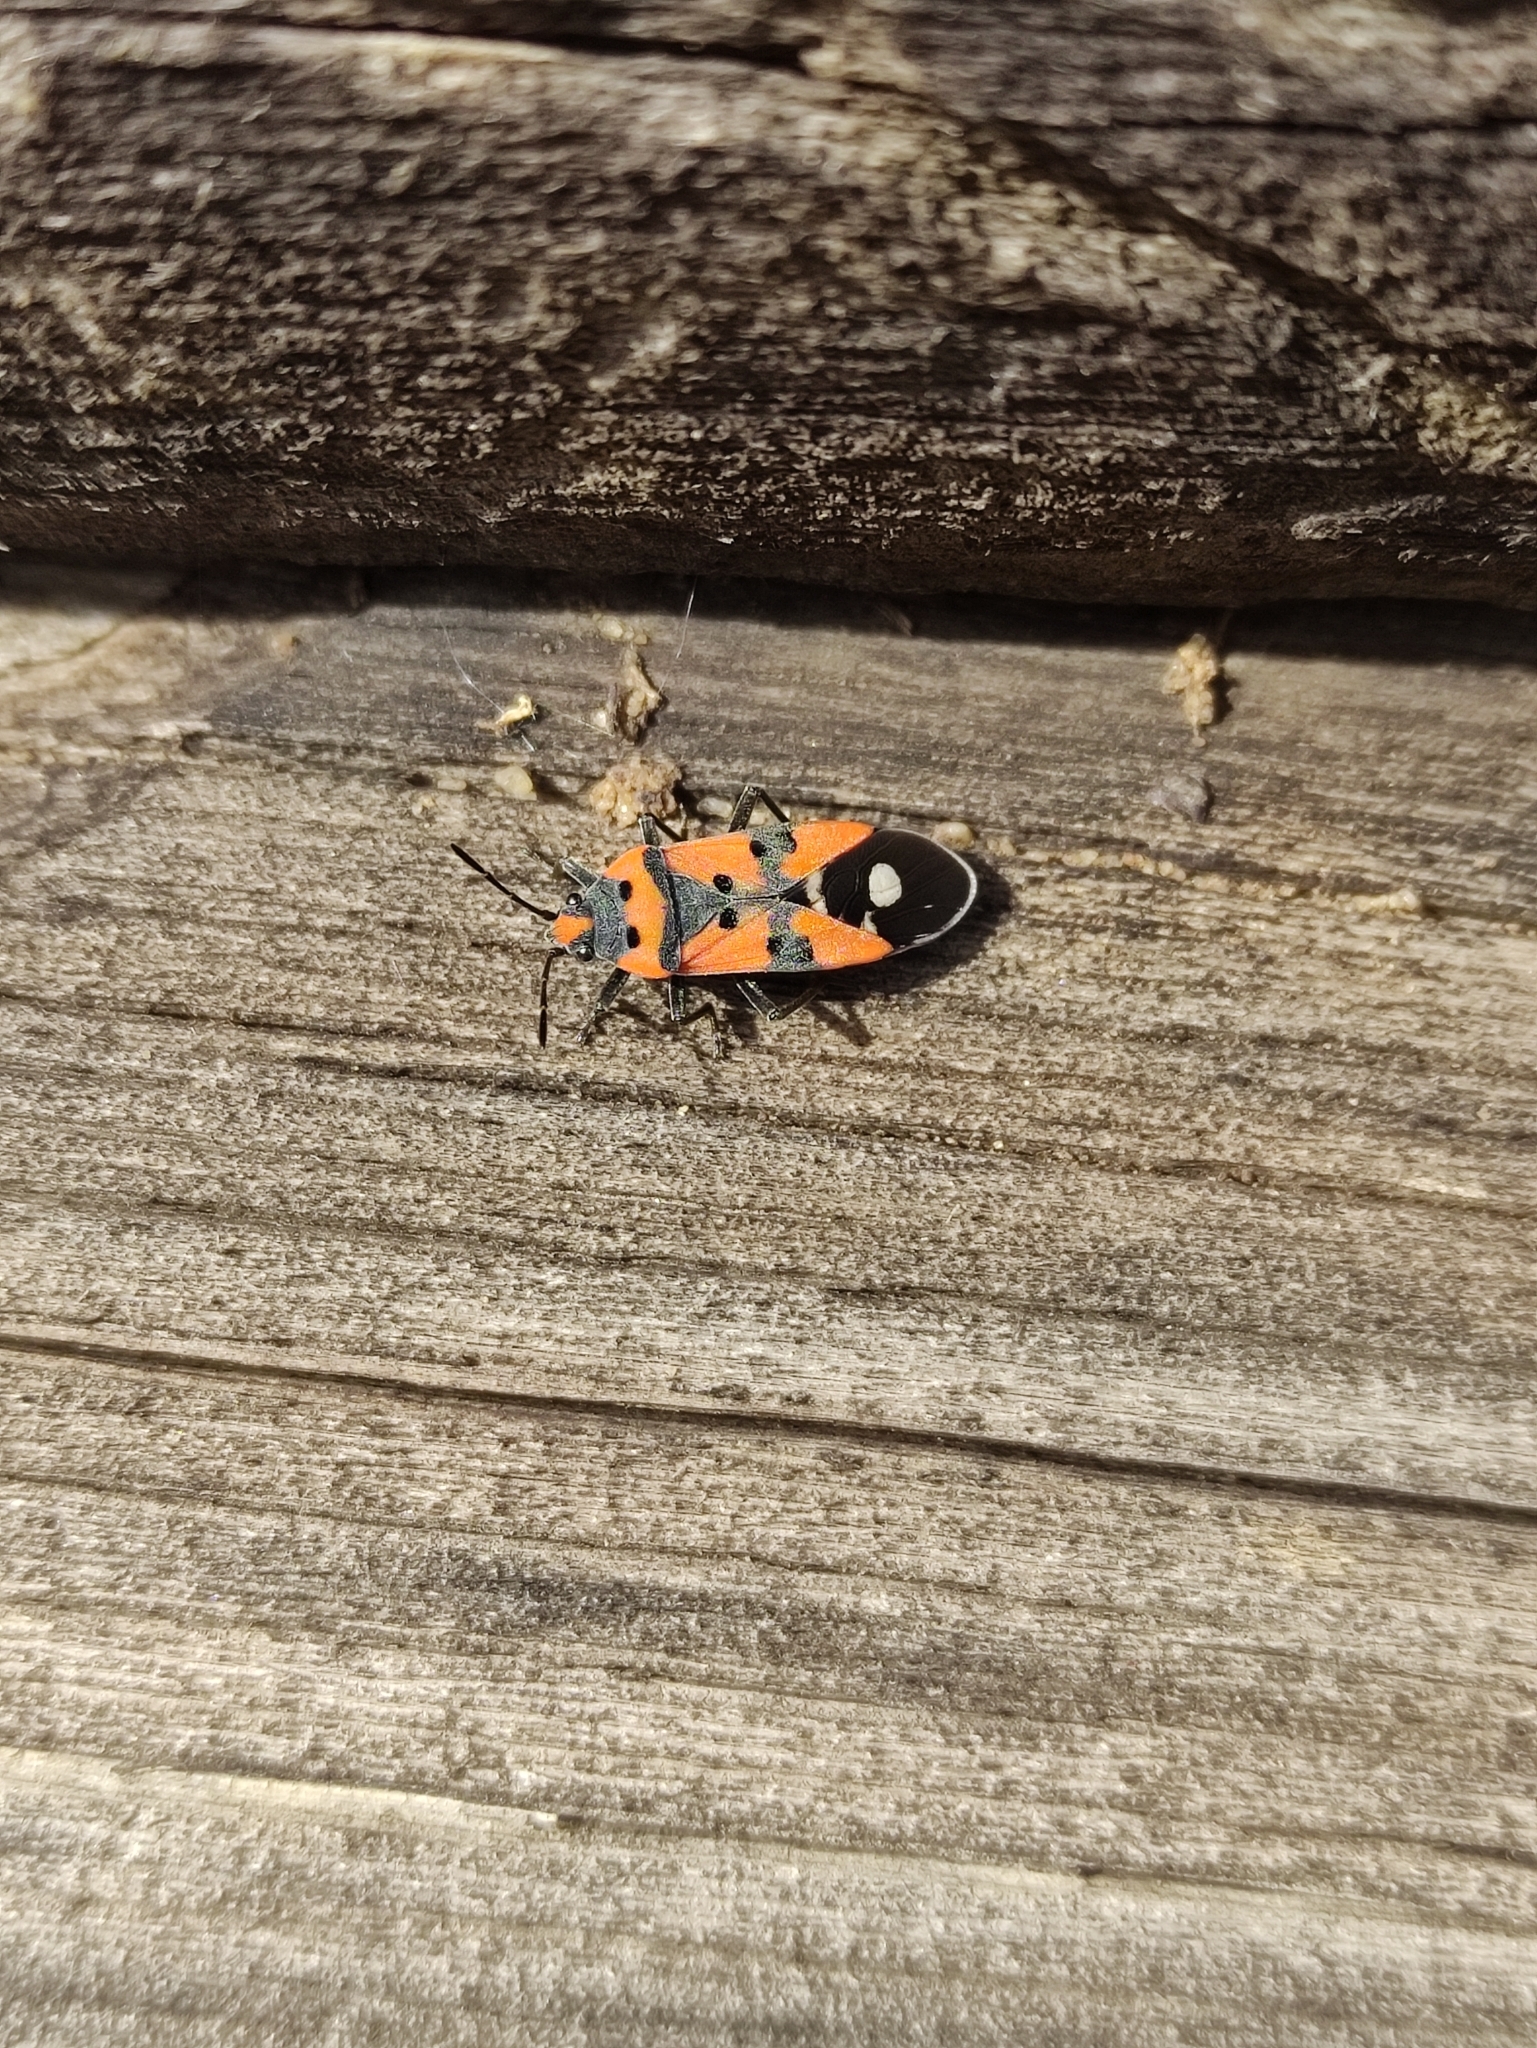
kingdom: Animalia
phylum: Arthropoda
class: Insecta
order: Hemiptera
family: Lygaeidae
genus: Lygaeus
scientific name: Lygaeus equestris
